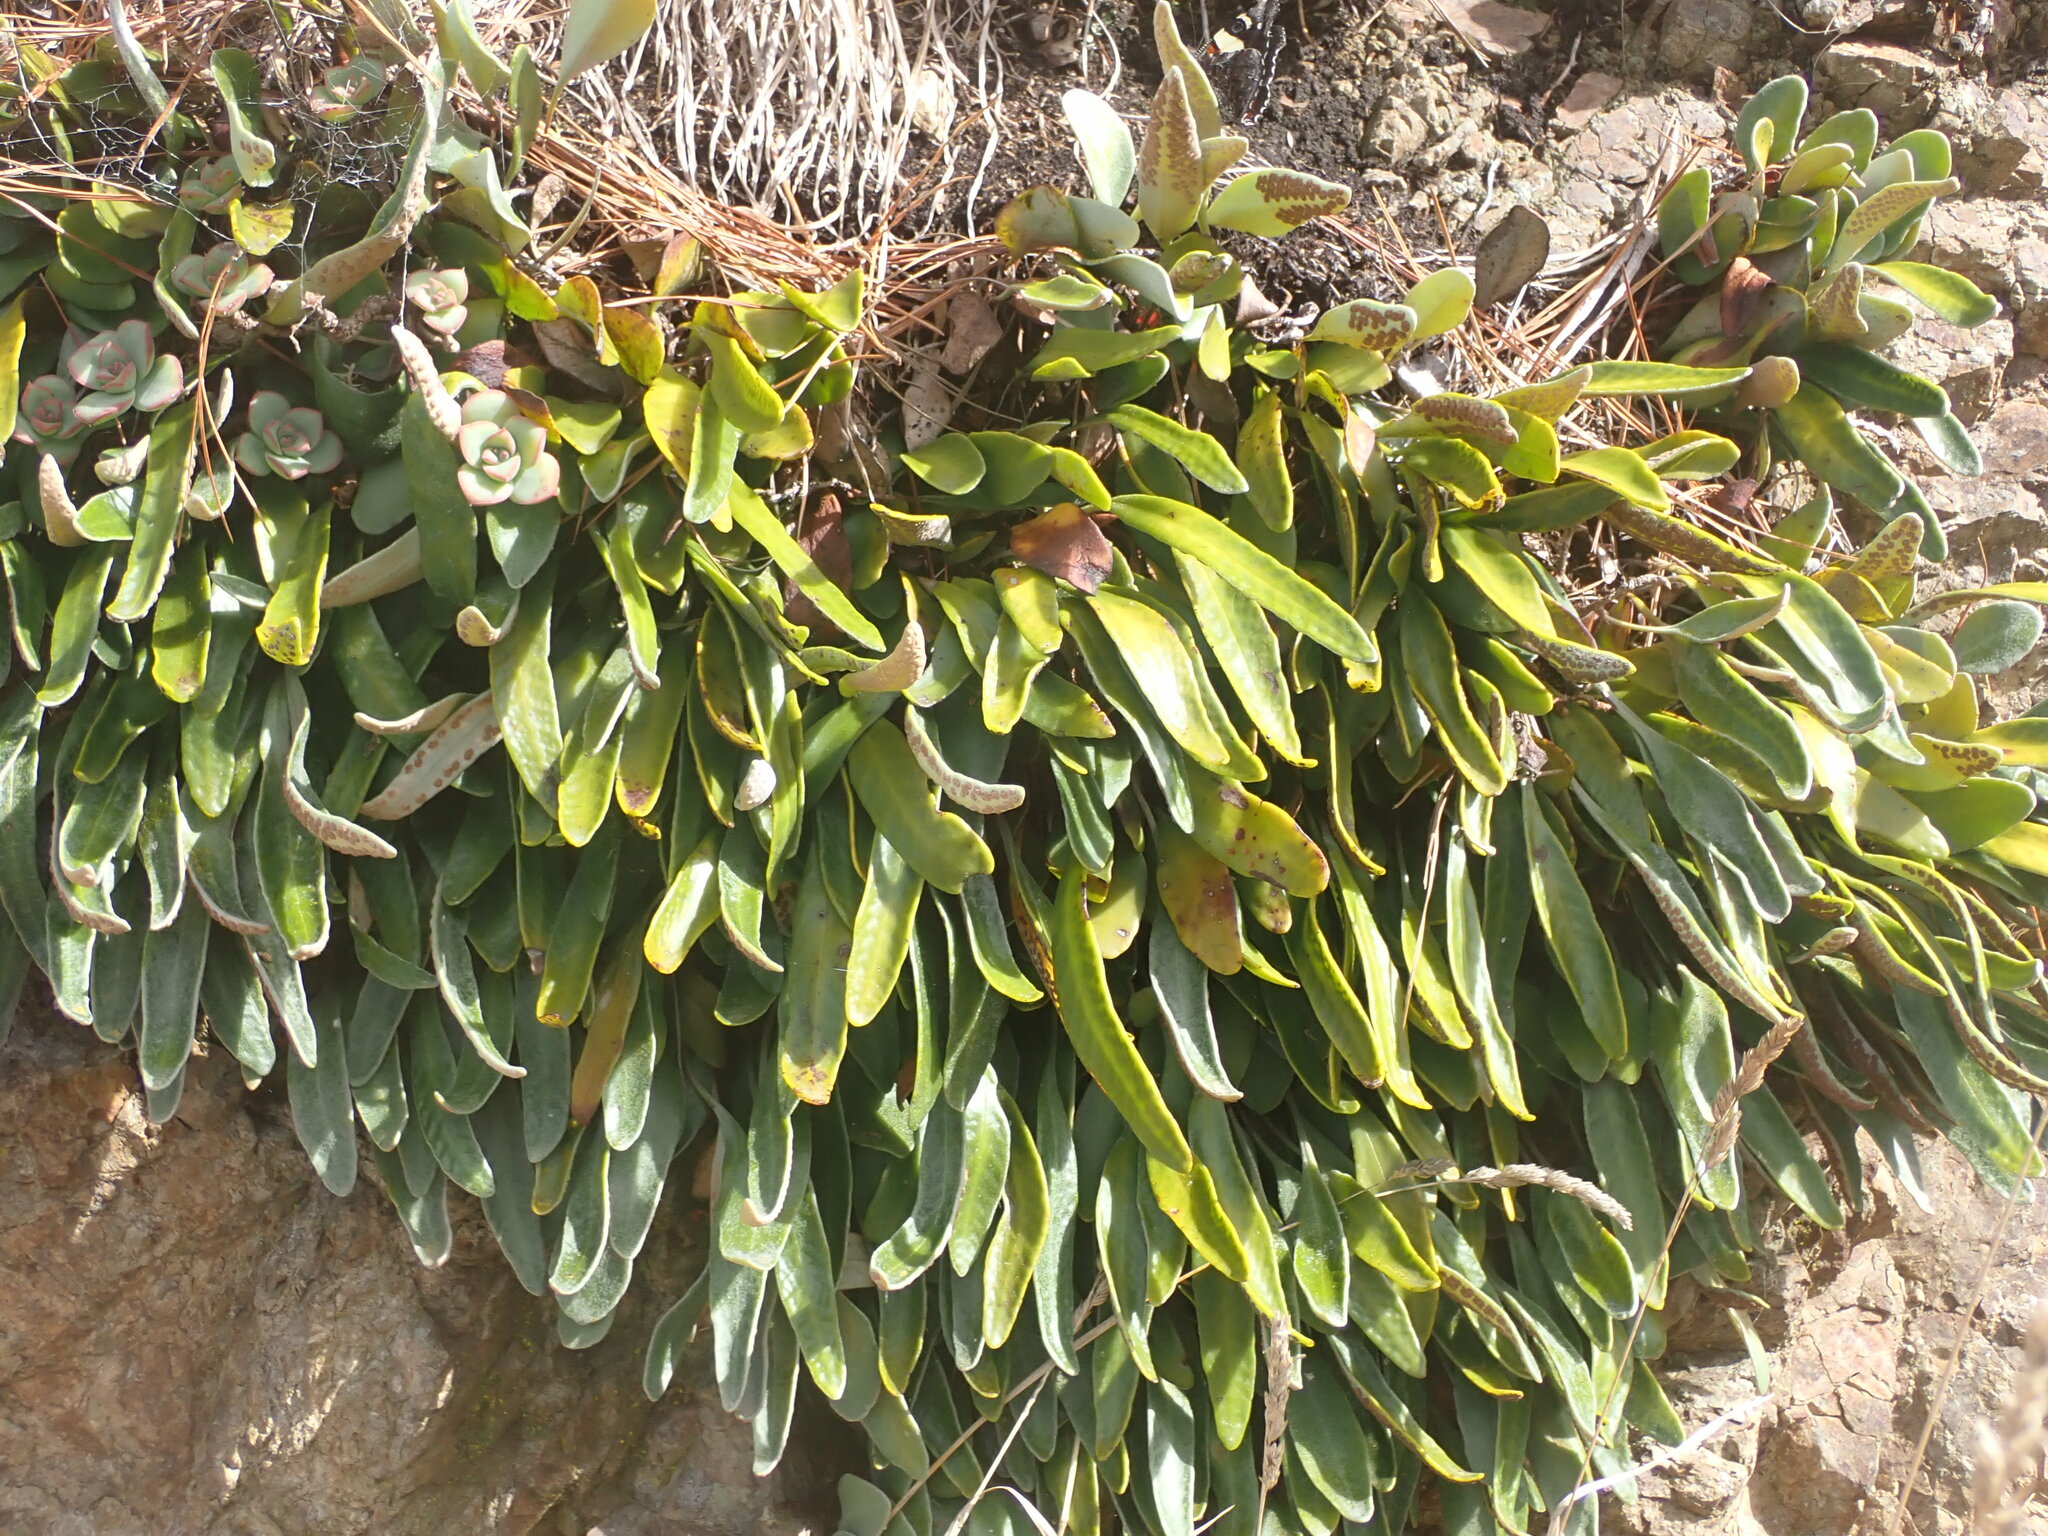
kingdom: Plantae
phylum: Tracheophyta
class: Polypodiopsida
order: Polypodiales
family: Polypodiaceae
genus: Pyrrosia
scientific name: Pyrrosia eleagnifolia
